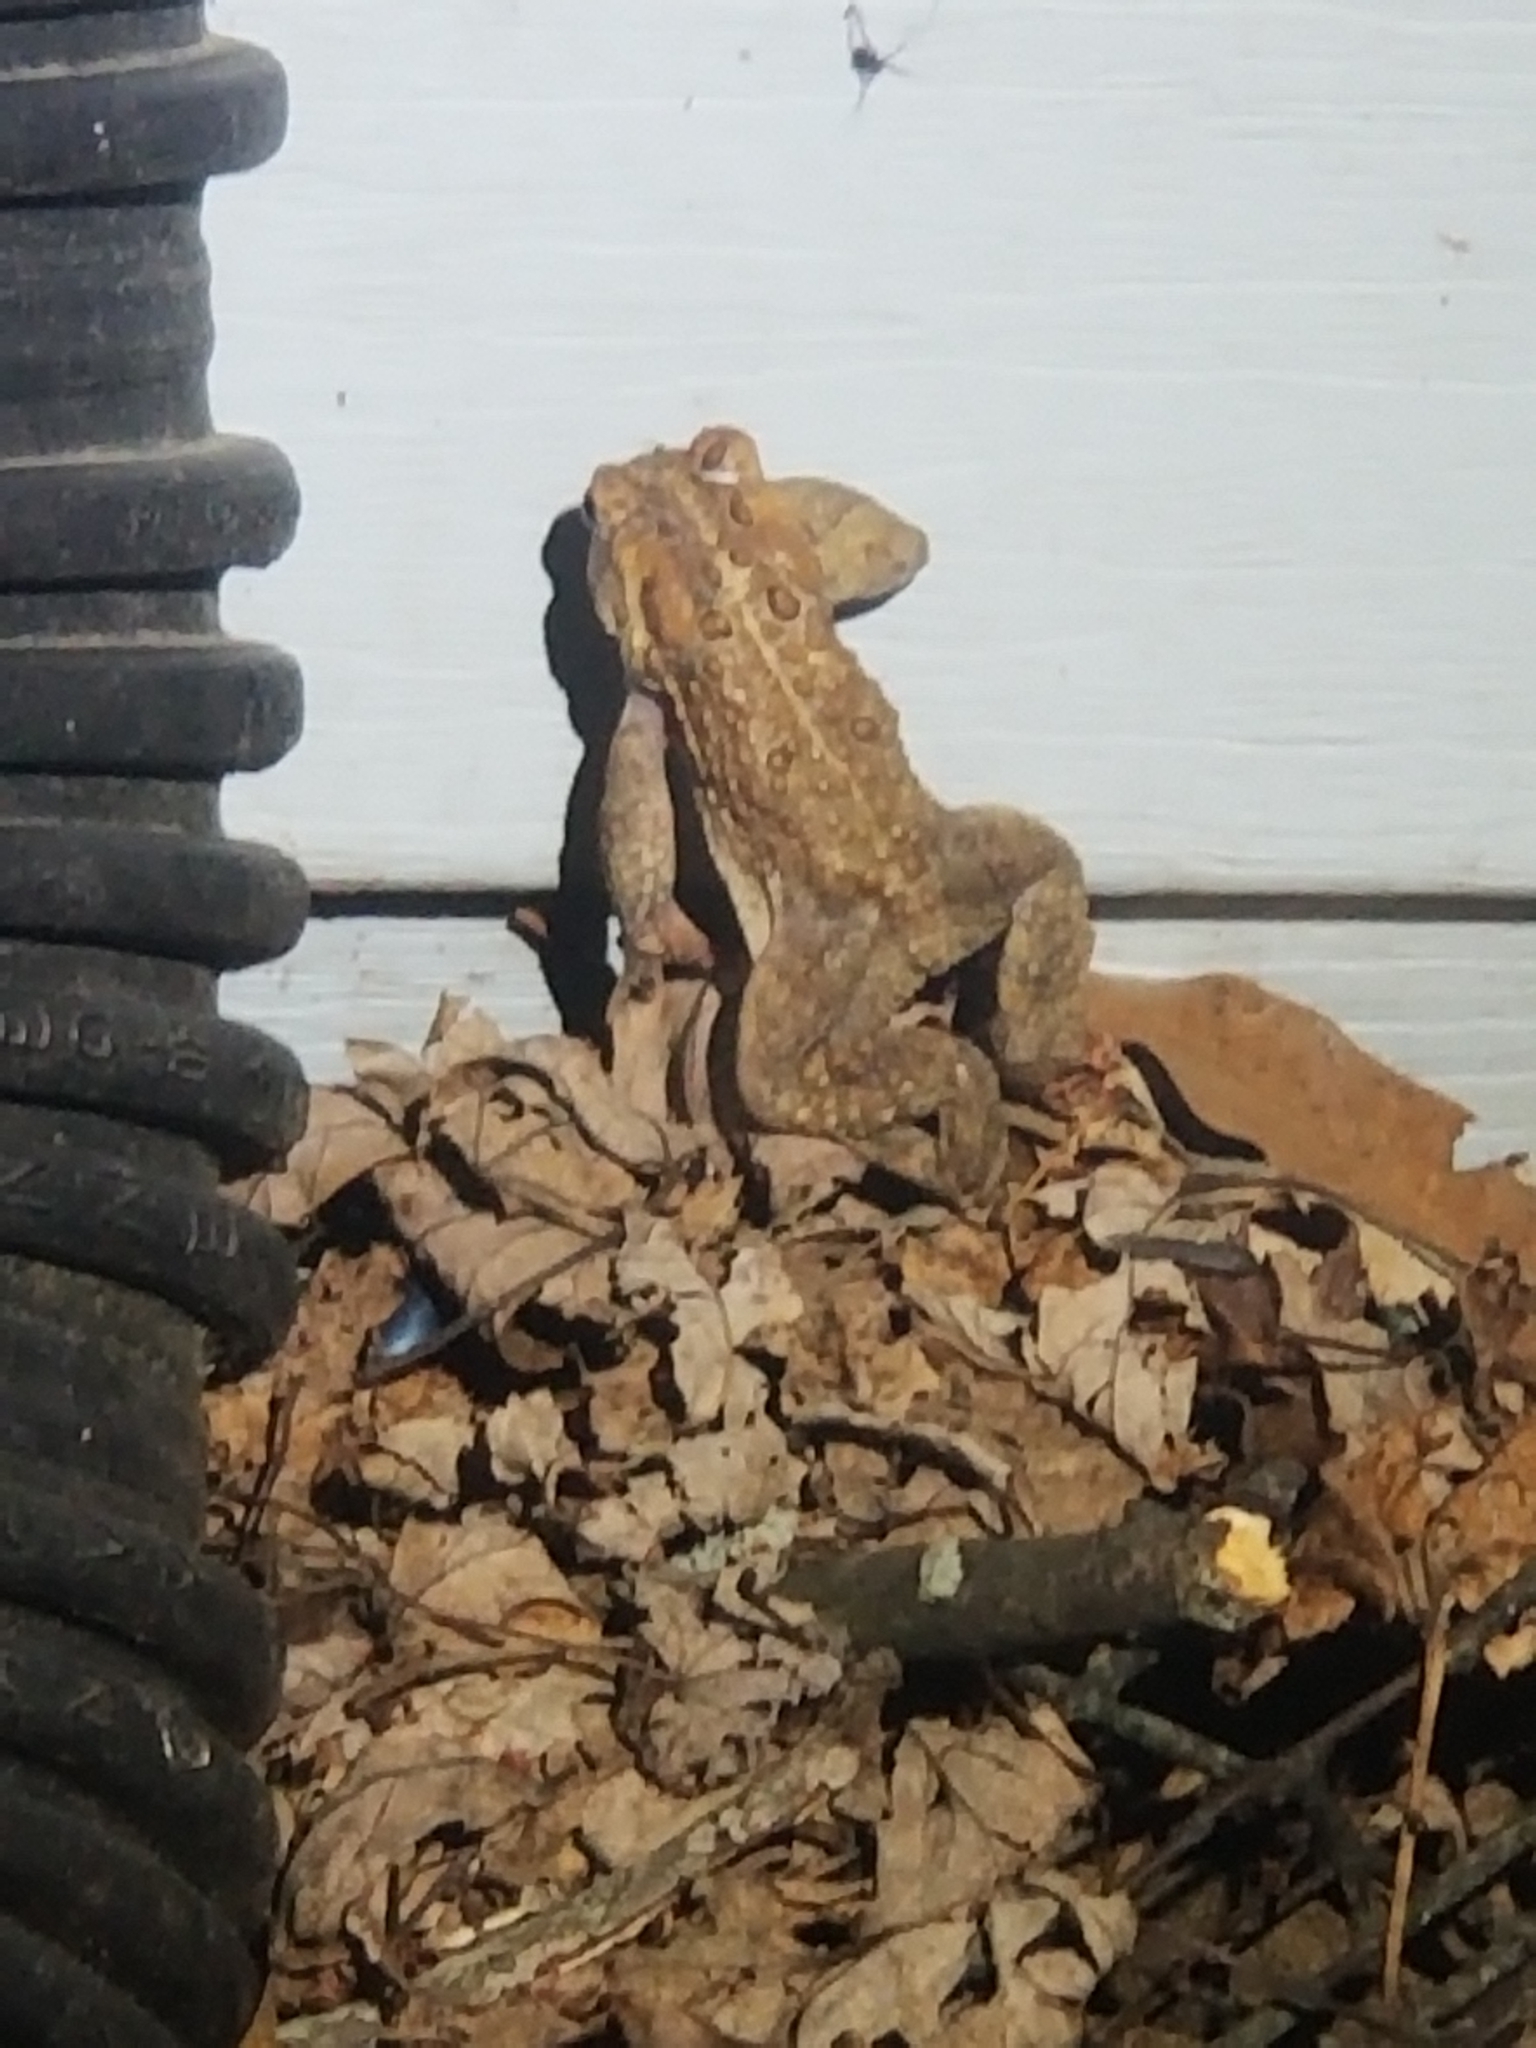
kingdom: Animalia
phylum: Chordata
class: Amphibia
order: Anura
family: Bufonidae
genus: Anaxyrus
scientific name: Anaxyrus americanus
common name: American toad
